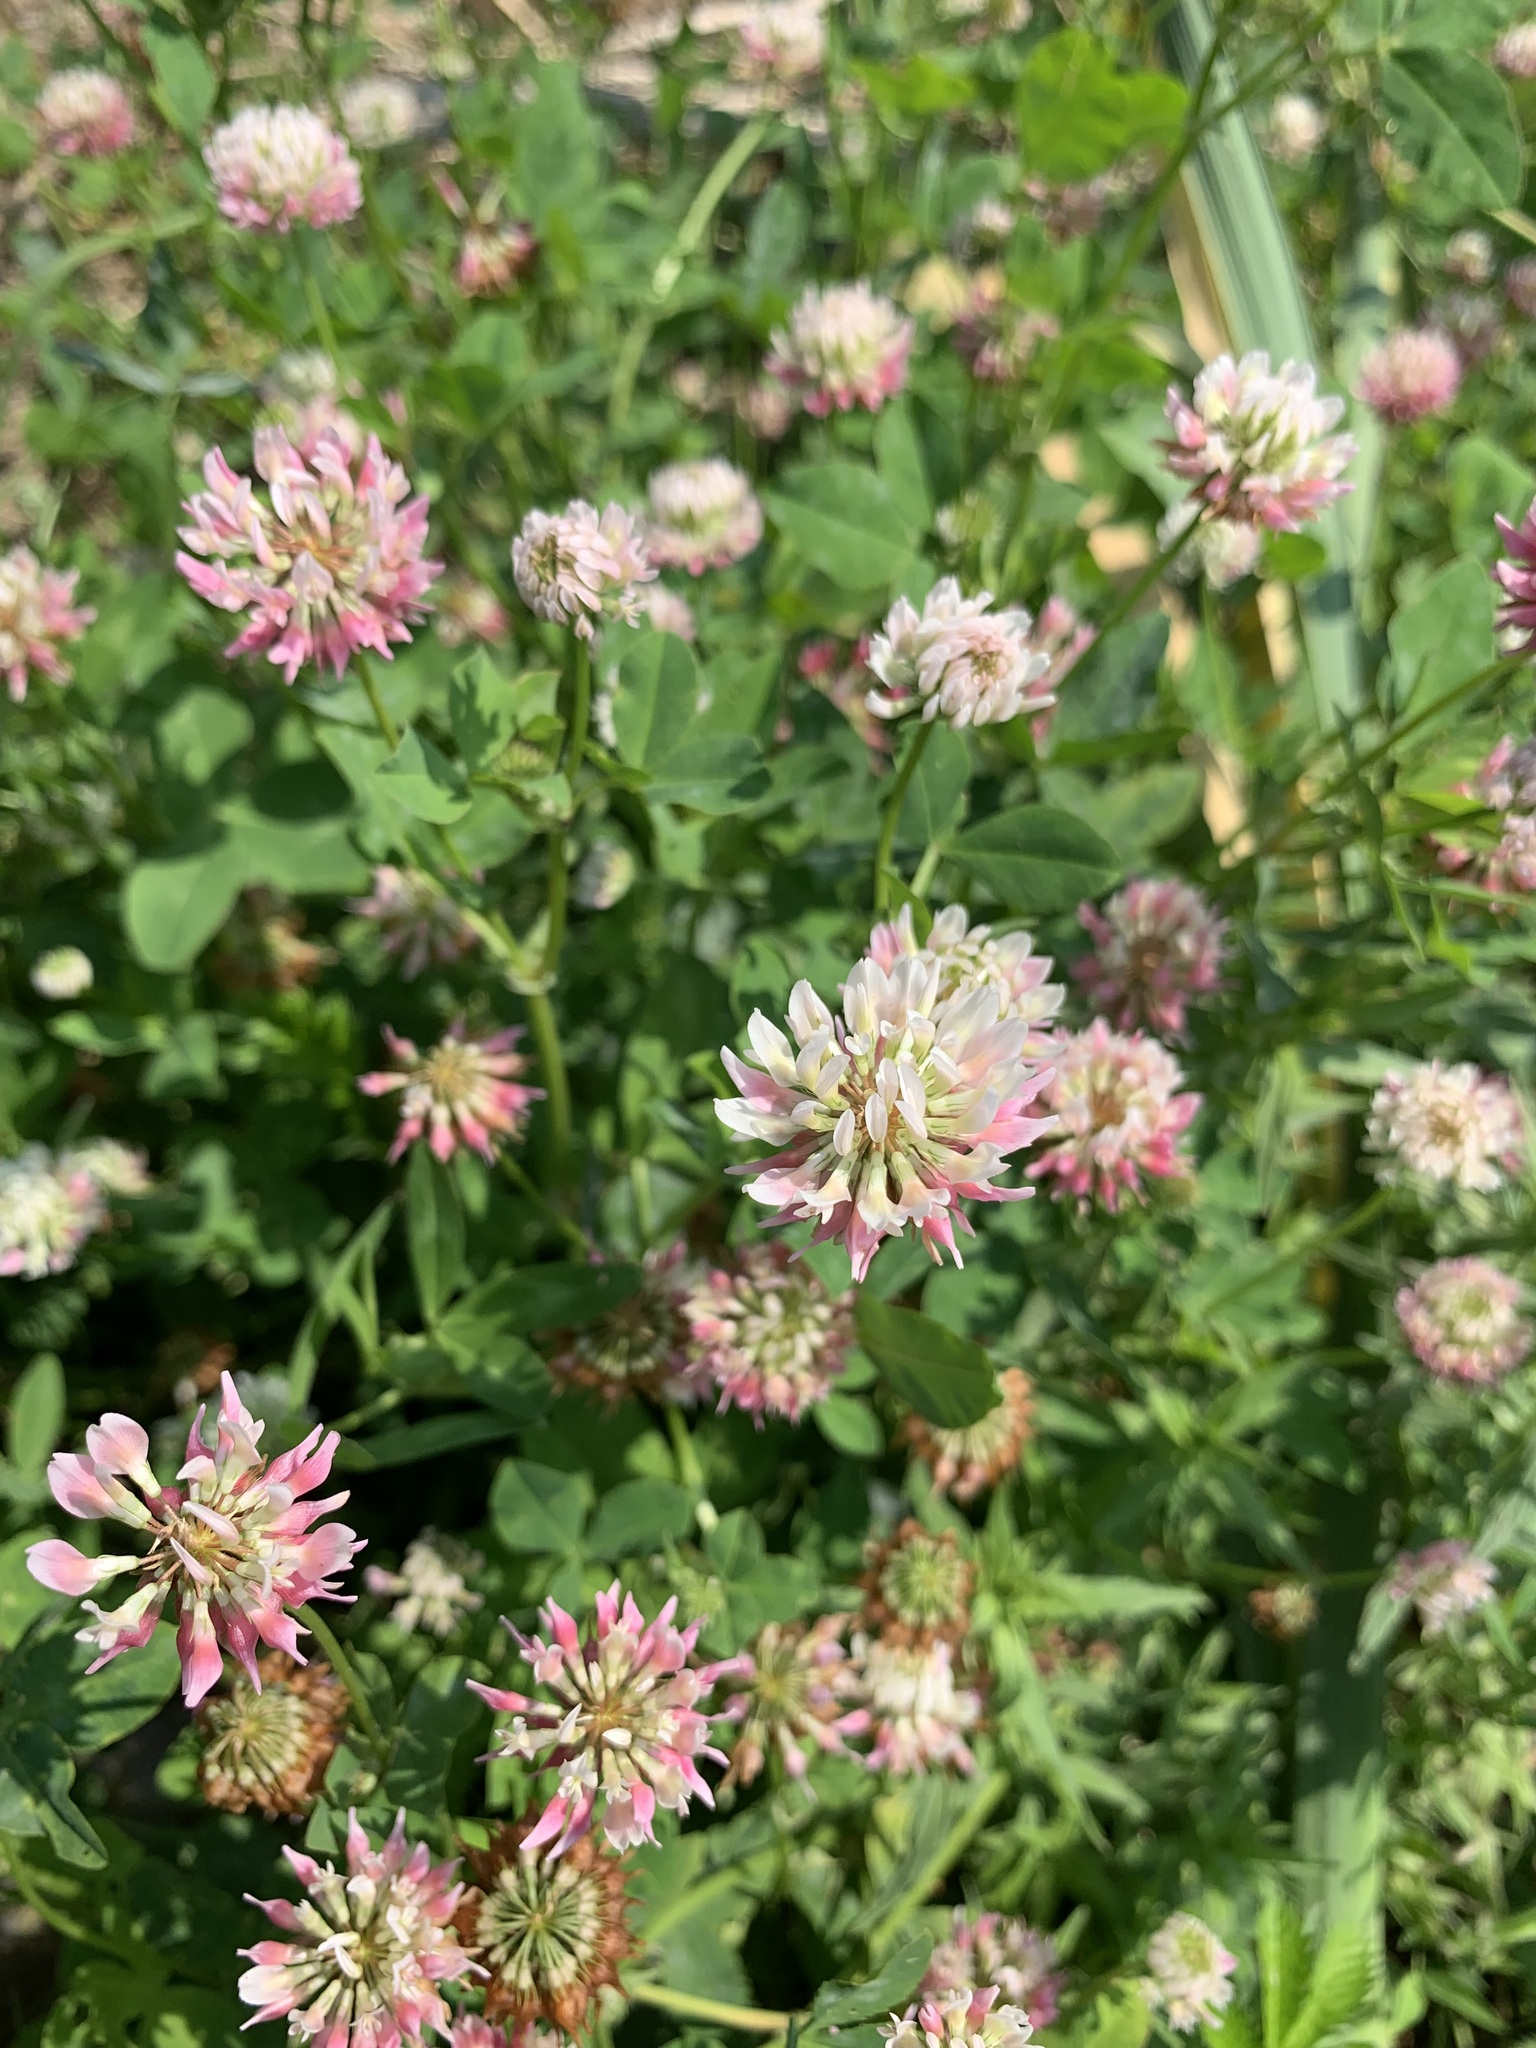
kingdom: Plantae
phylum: Tracheophyta
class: Magnoliopsida
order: Fabales
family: Fabaceae
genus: Trifolium
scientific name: Trifolium hybridum
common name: Alsike clover
